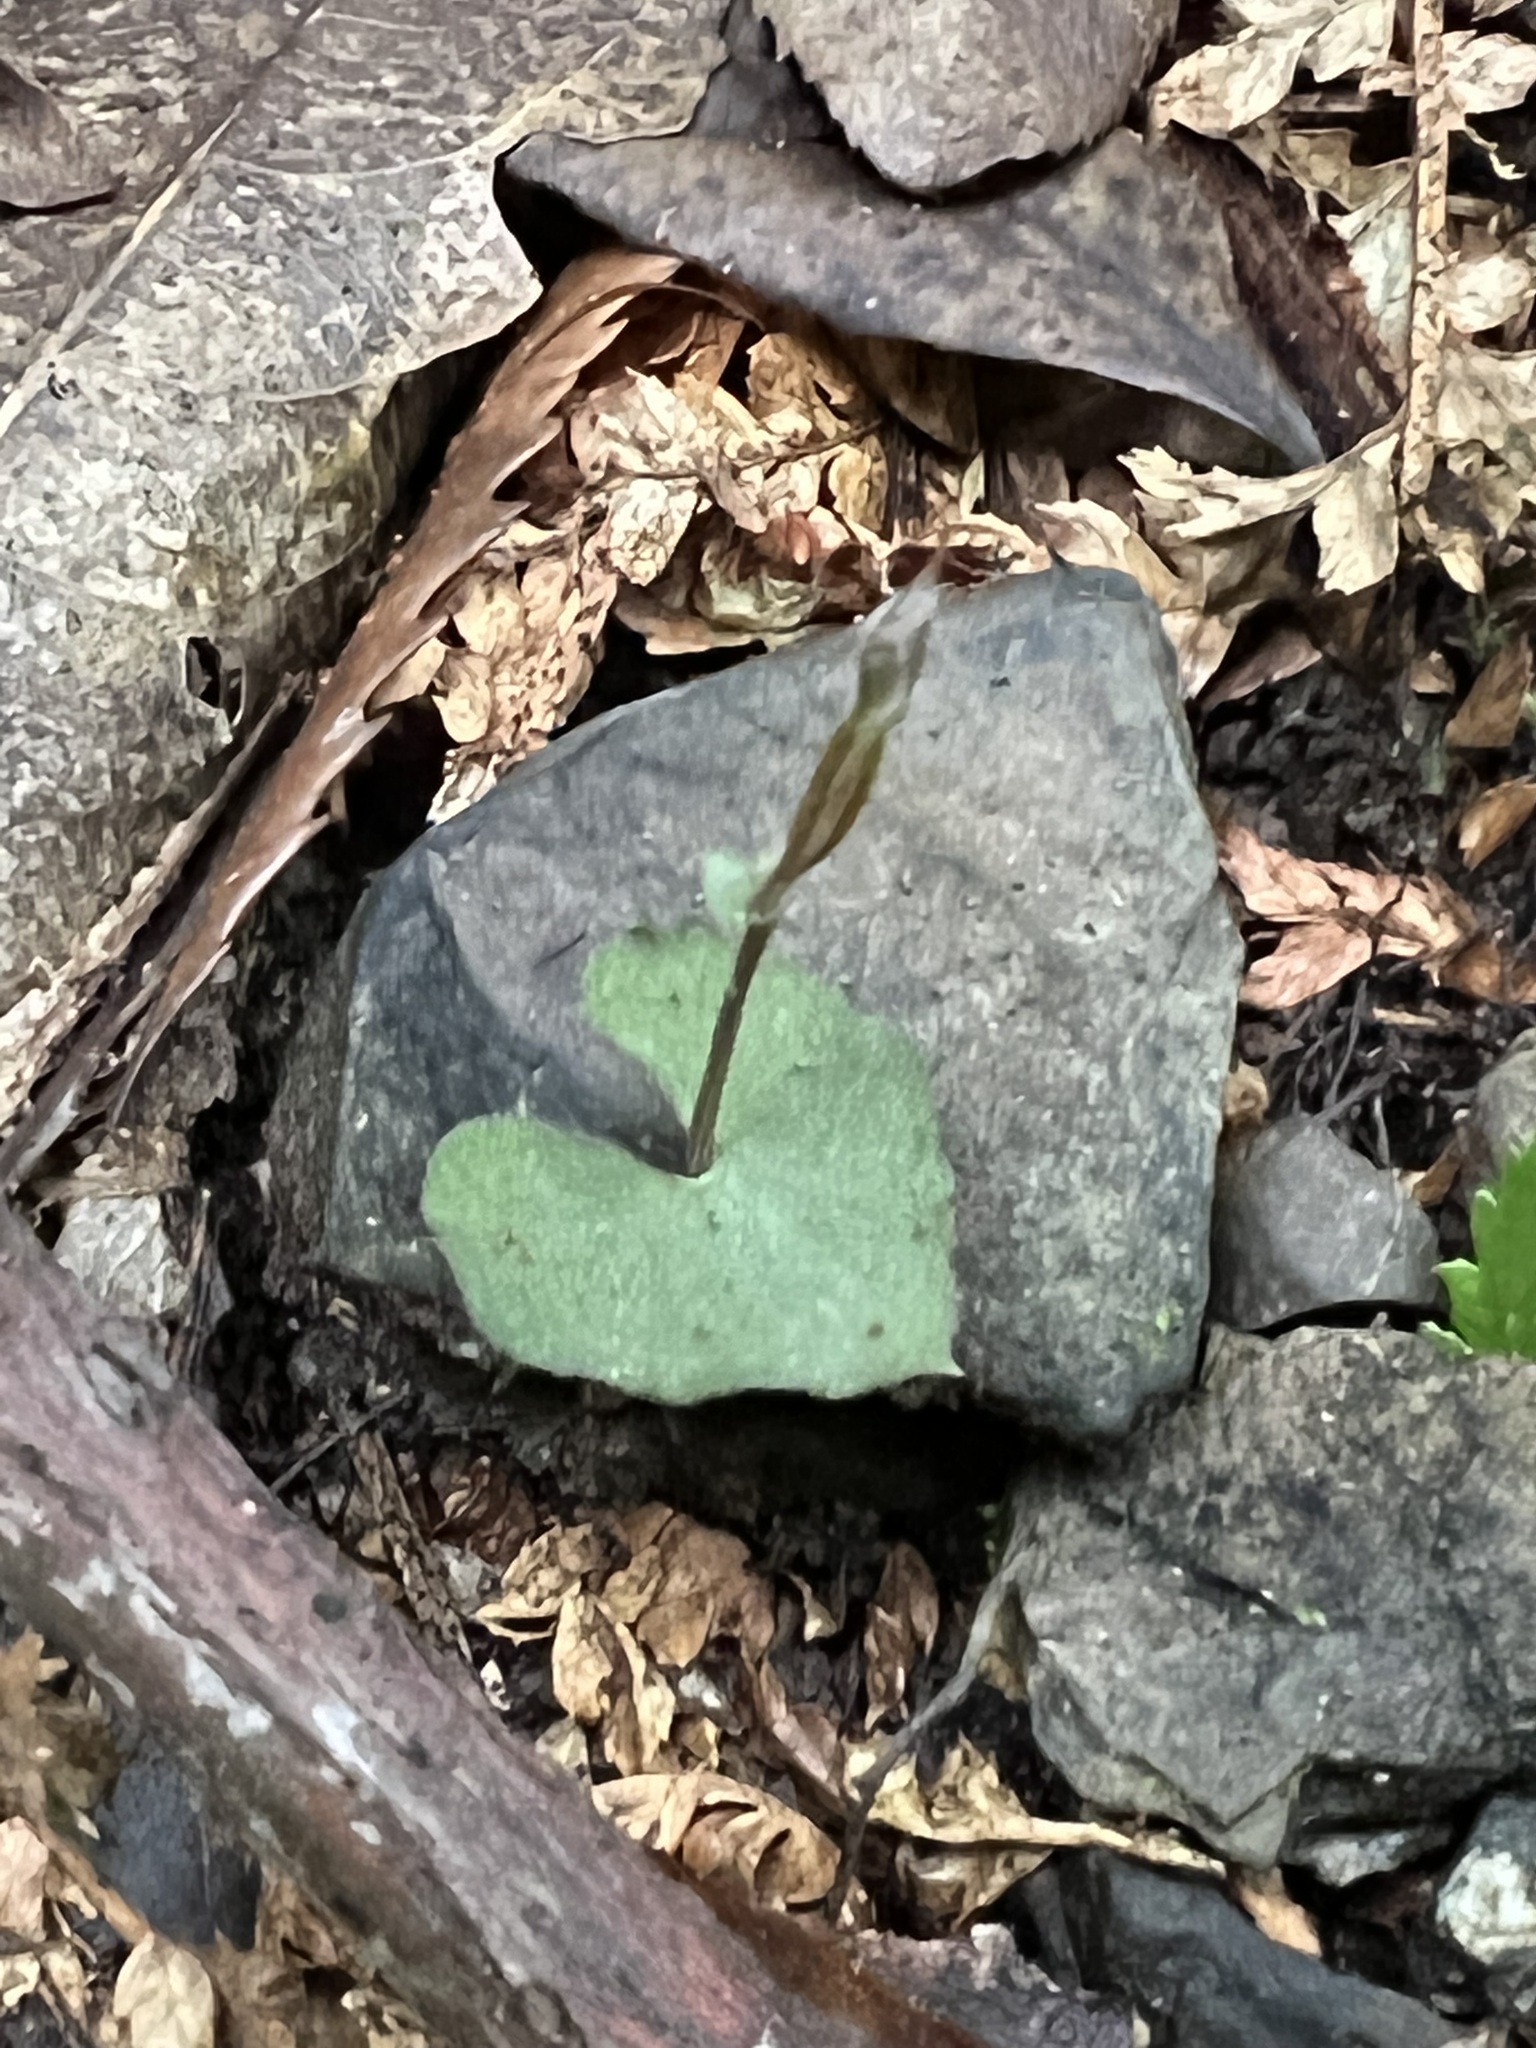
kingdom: Plantae
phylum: Tracheophyta
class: Liliopsida
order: Asparagales
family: Orchidaceae
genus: Acianthus
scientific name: Acianthus sinclairii
